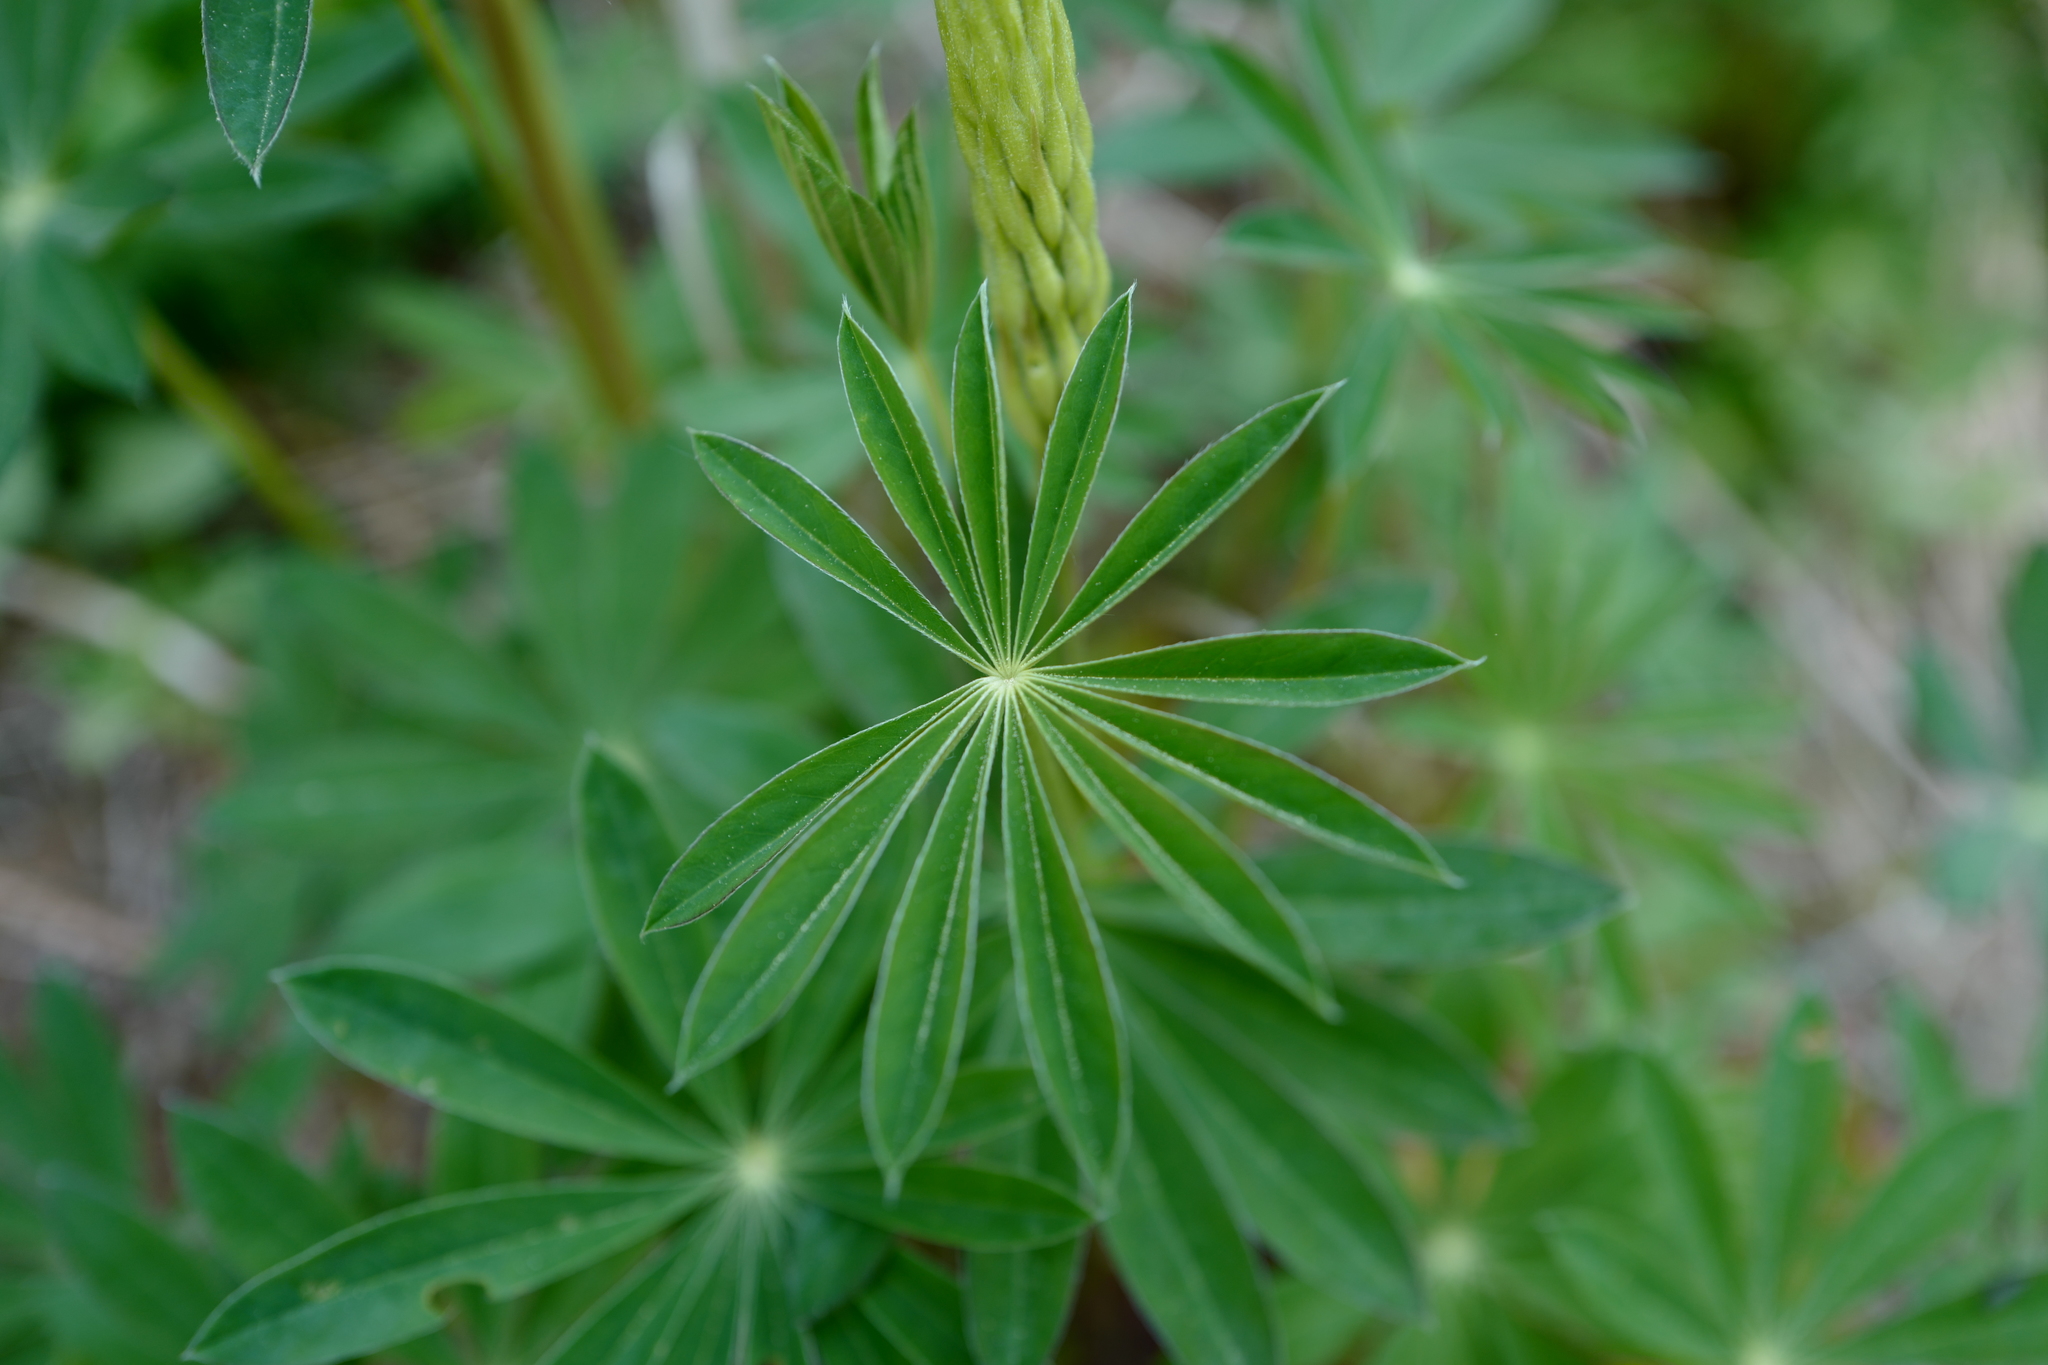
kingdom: Plantae
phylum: Tracheophyta
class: Magnoliopsida
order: Fabales
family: Fabaceae
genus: Lupinus
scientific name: Lupinus polyphyllus
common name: Garden lupin
